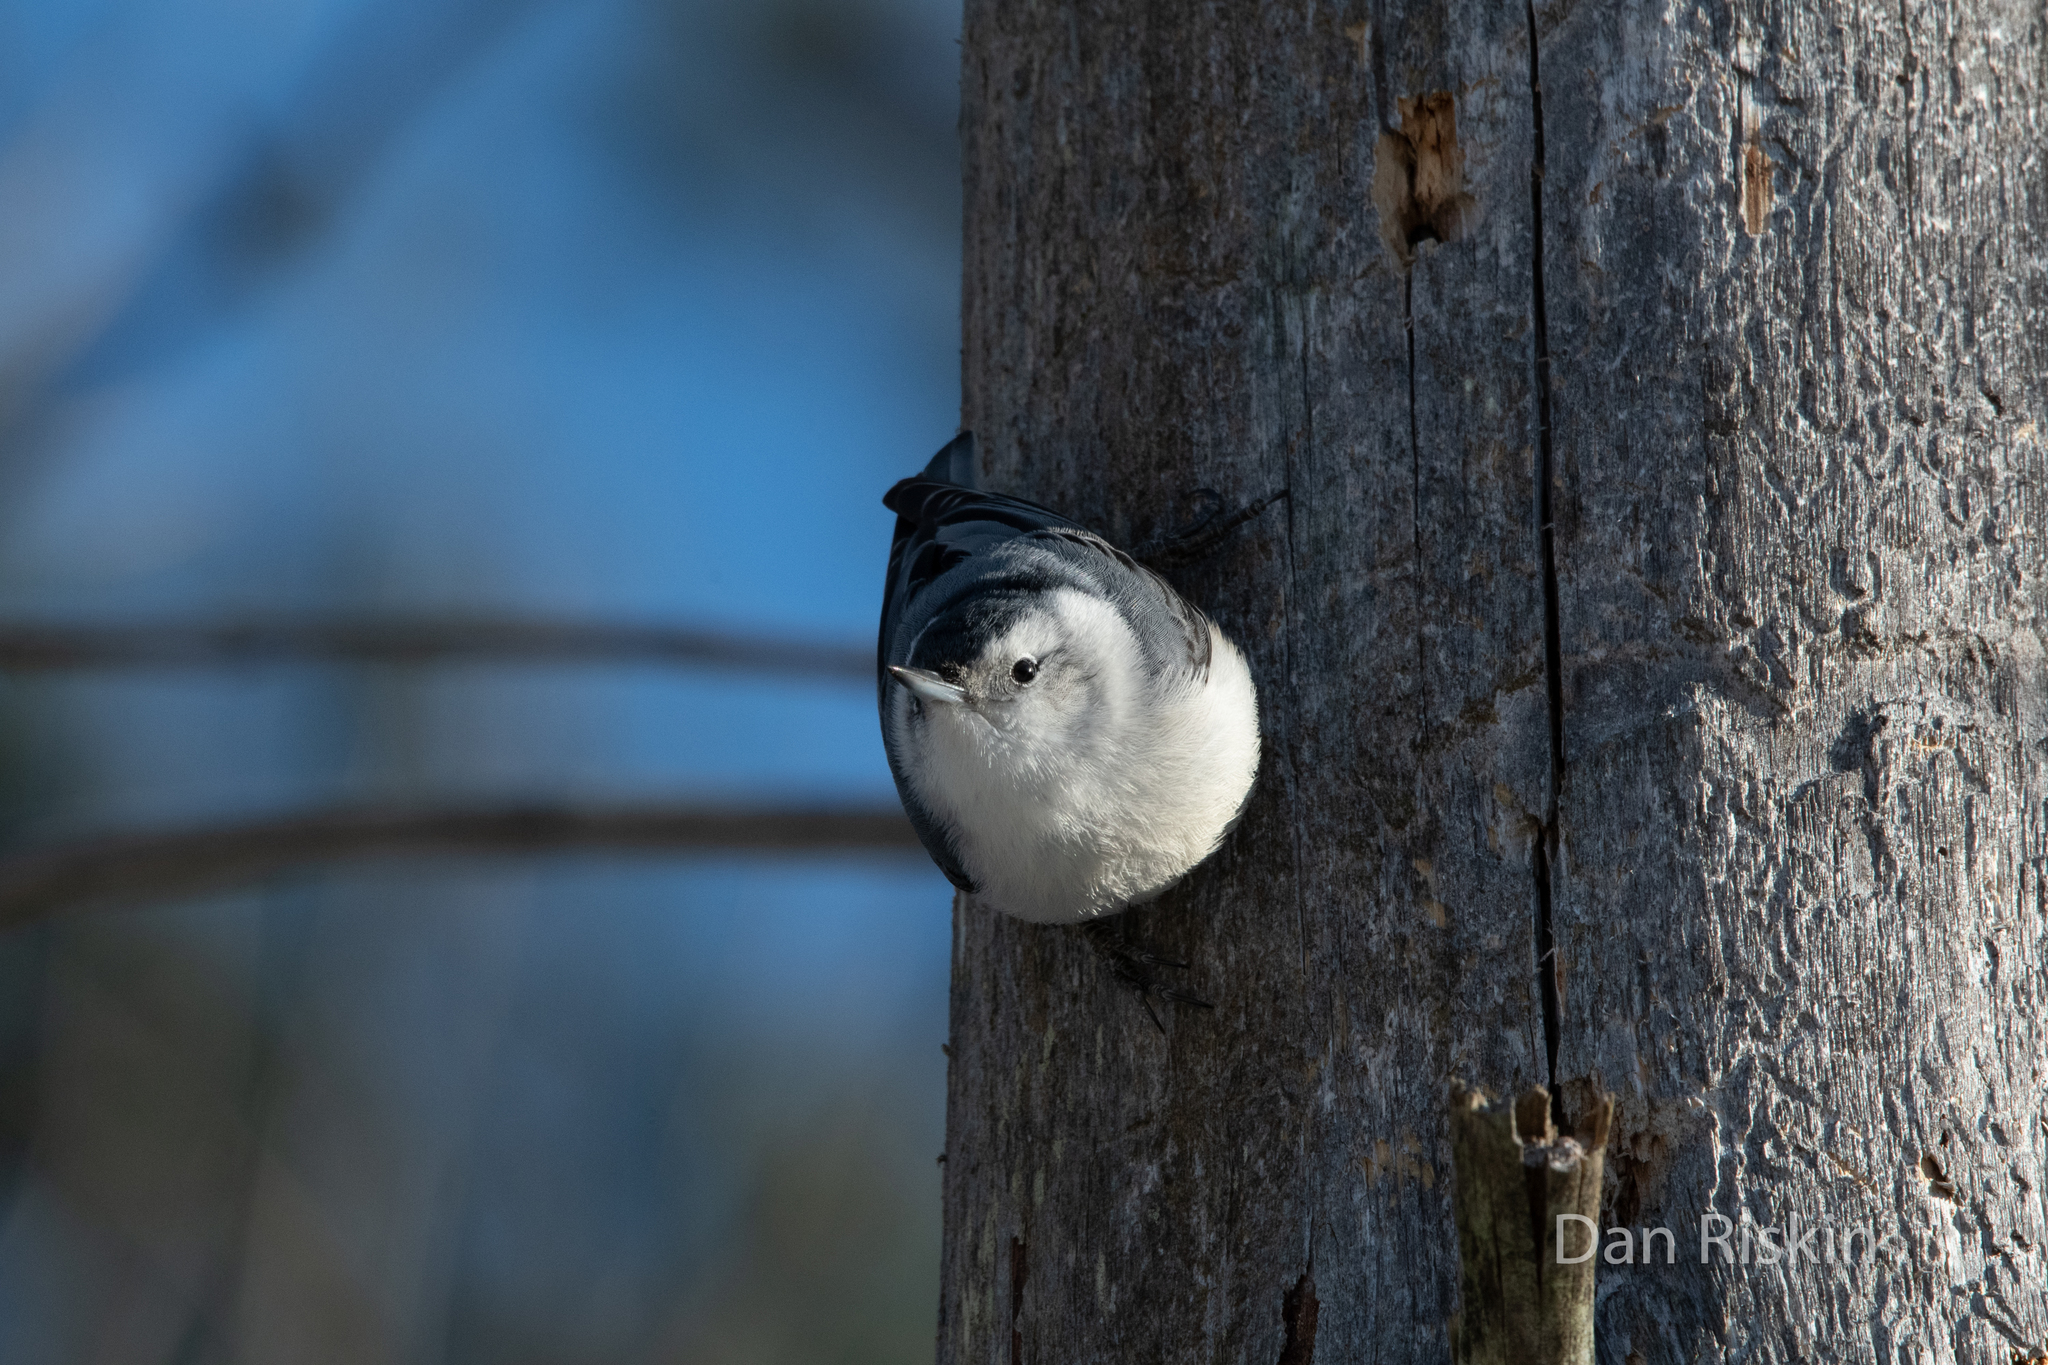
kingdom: Animalia
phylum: Chordata
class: Aves
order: Passeriformes
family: Sittidae
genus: Sitta
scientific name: Sitta carolinensis
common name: White-breasted nuthatch
